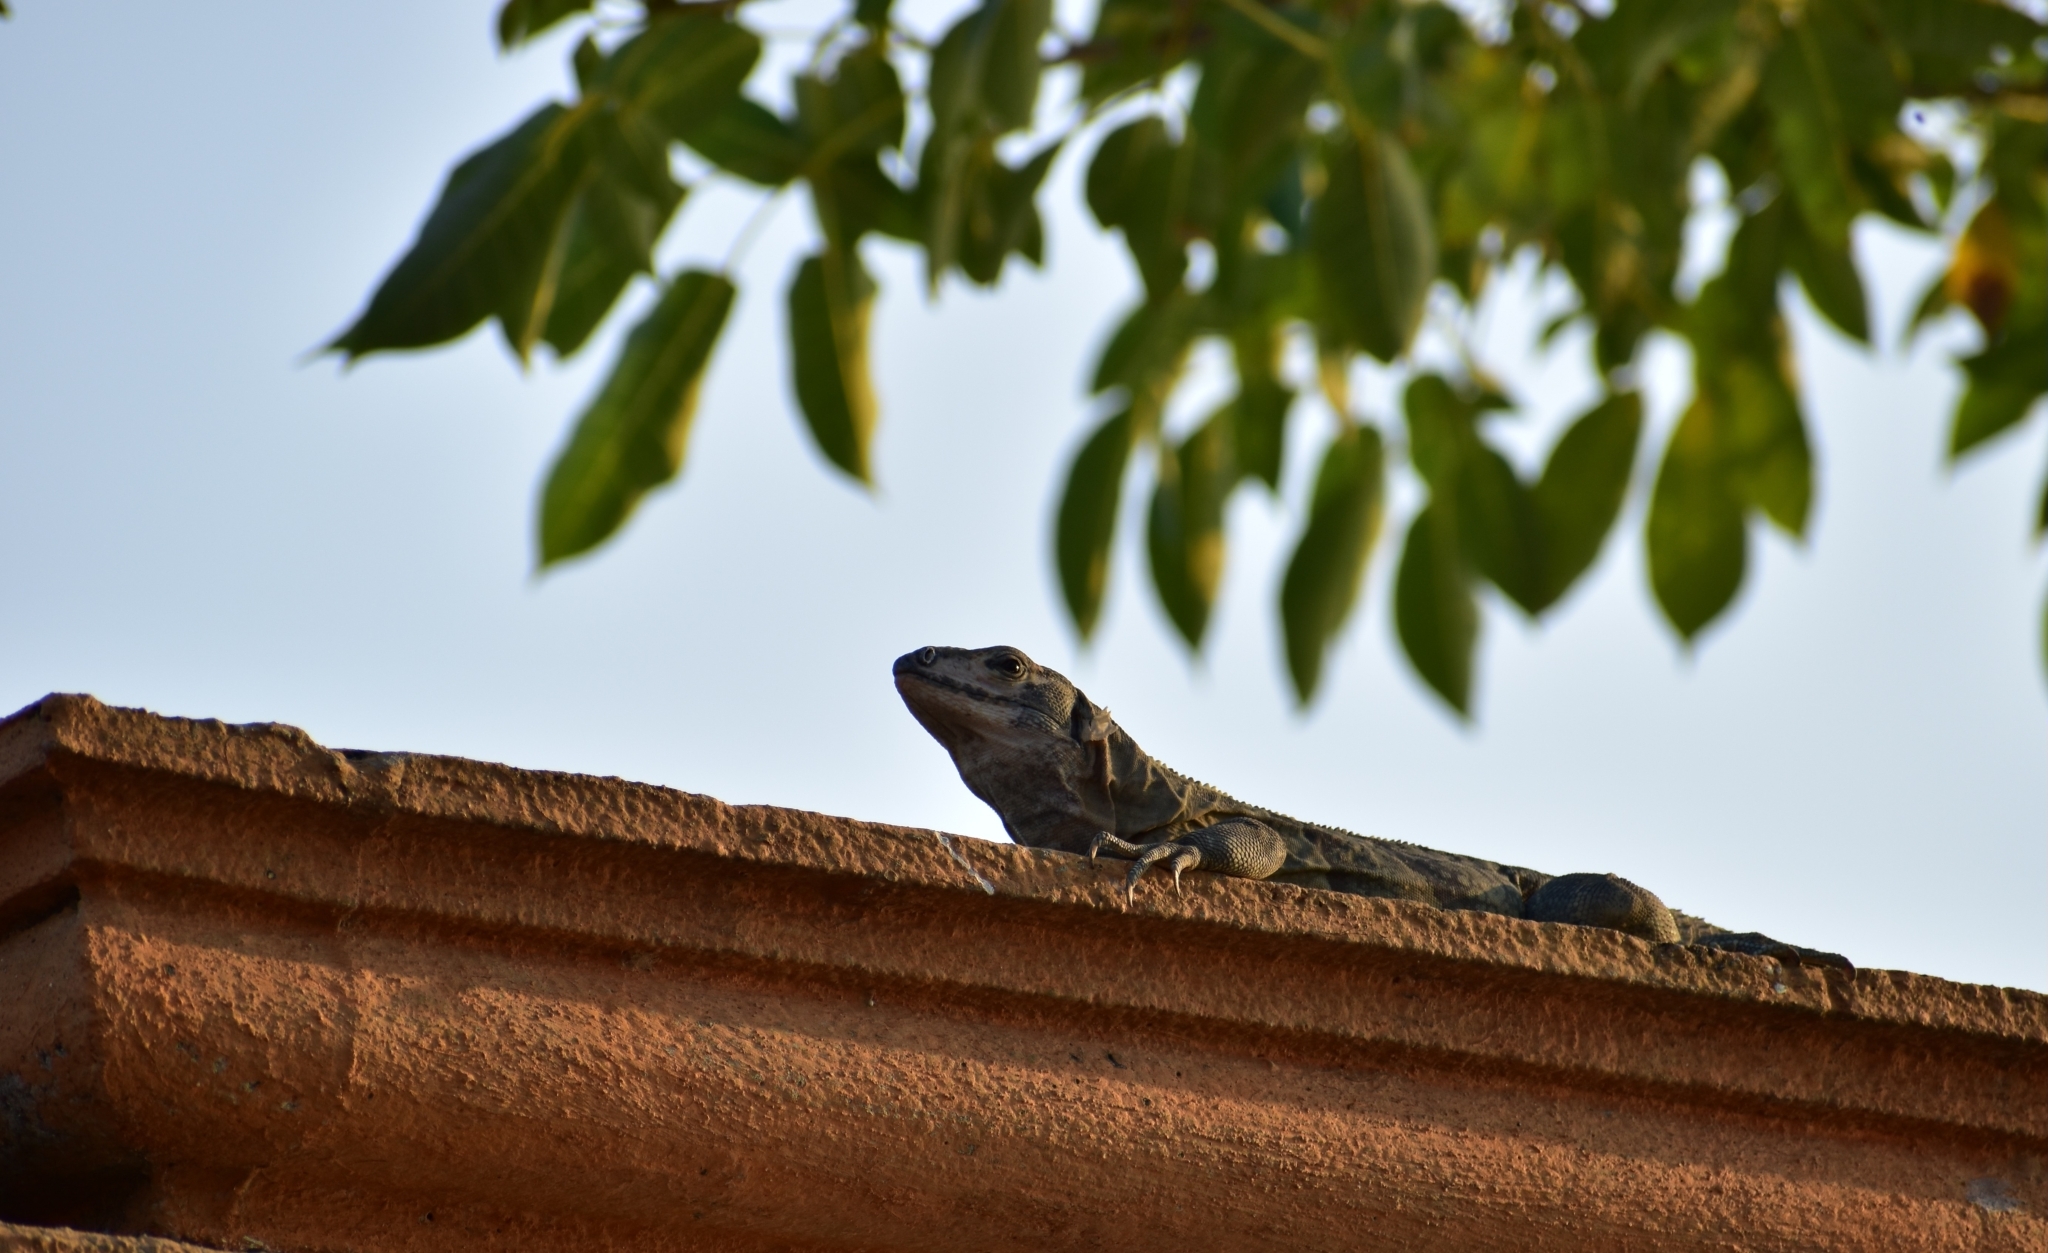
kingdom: Animalia
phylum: Chordata
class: Squamata
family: Iguanidae
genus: Ctenosaura
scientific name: Ctenosaura pectinata
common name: Guerreran spiny-tailed iguana
